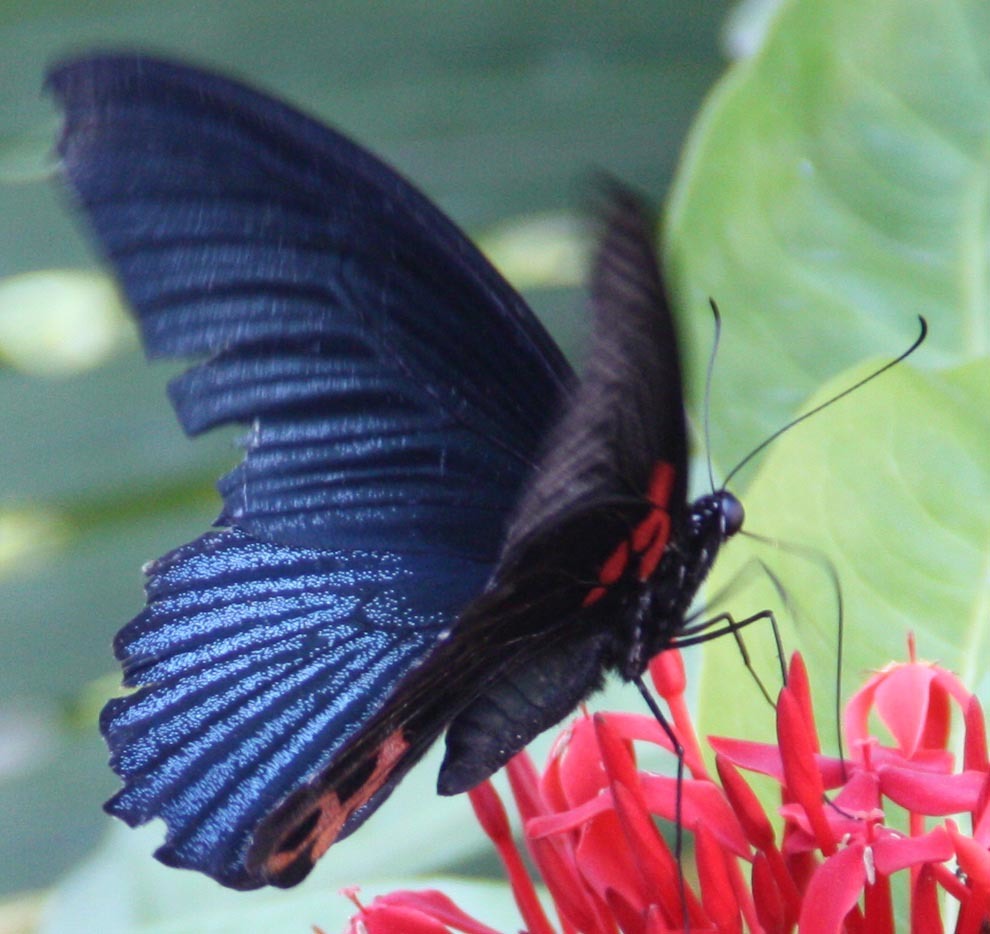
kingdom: Animalia
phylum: Arthropoda
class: Insecta
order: Lepidoptera
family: Papilionidae
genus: Papilio
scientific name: Papilio memnon
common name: Great mormon
